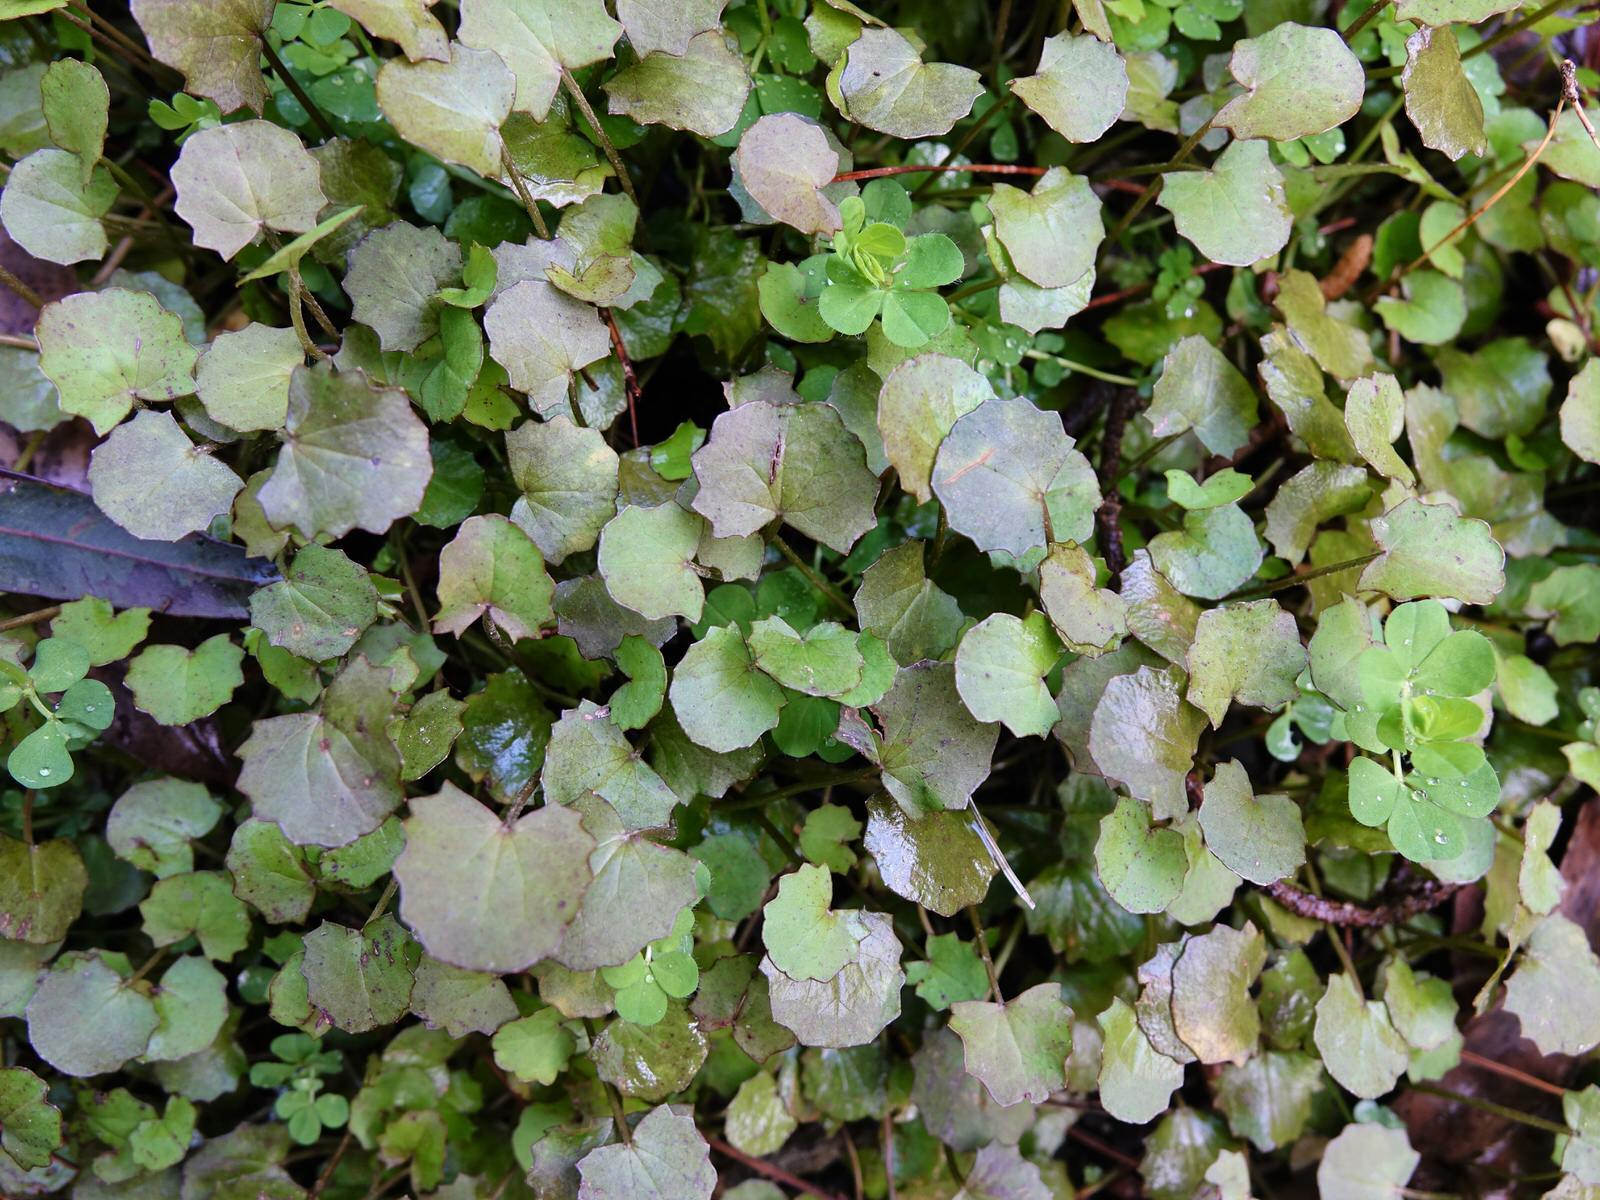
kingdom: Plantae
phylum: Tracheophyta
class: Magnoliopsida
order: Apiales
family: Apiaceae
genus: Centella
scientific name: Centella uniflora
